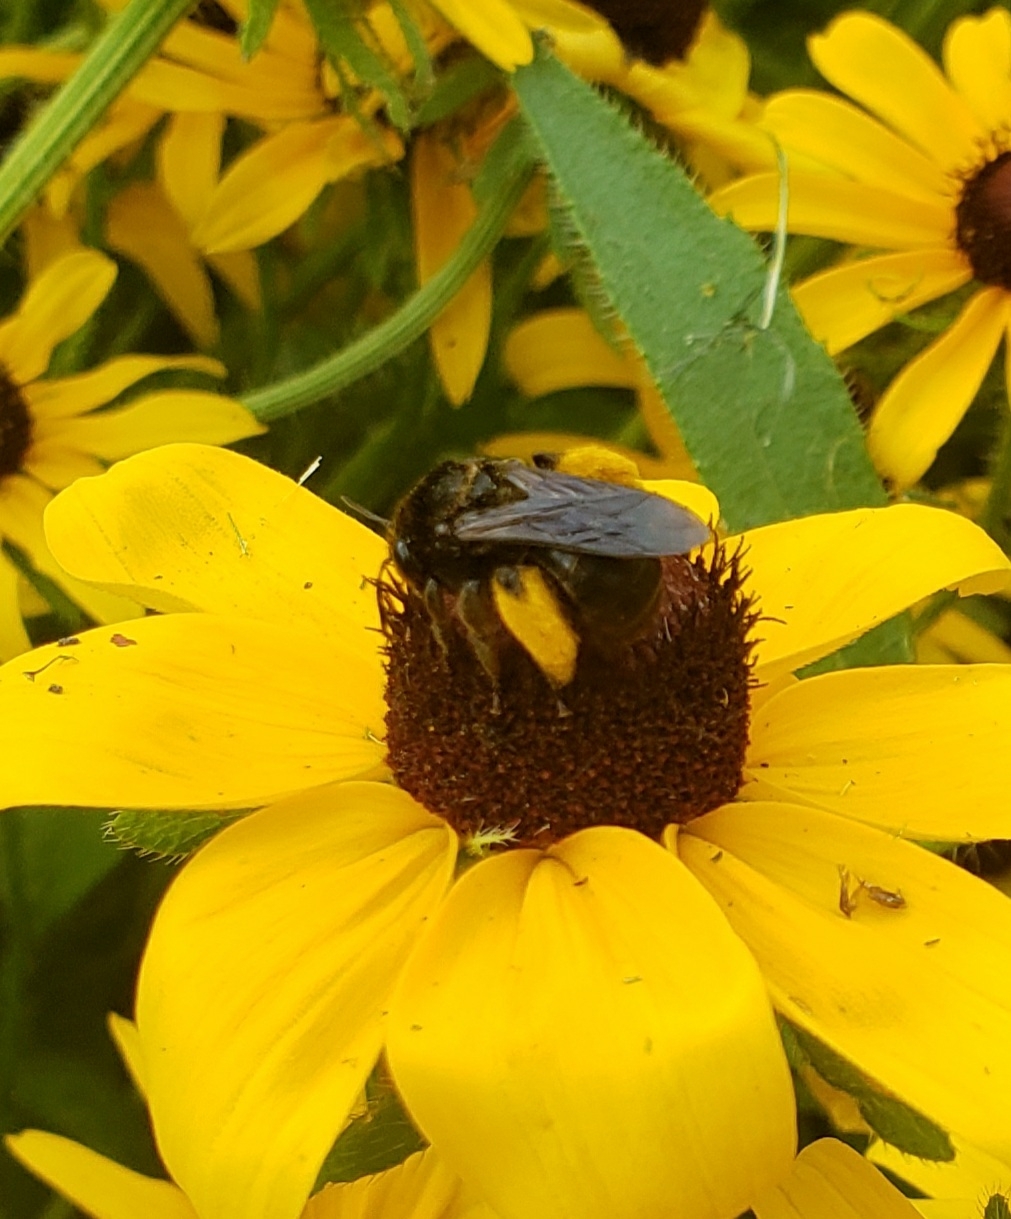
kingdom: Animalia
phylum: Arthropoda
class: Insecta
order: Hymenoptera
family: Apidae
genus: Melissodes
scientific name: Melissodes bimaculatus
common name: Two-spotted long-horned bee
